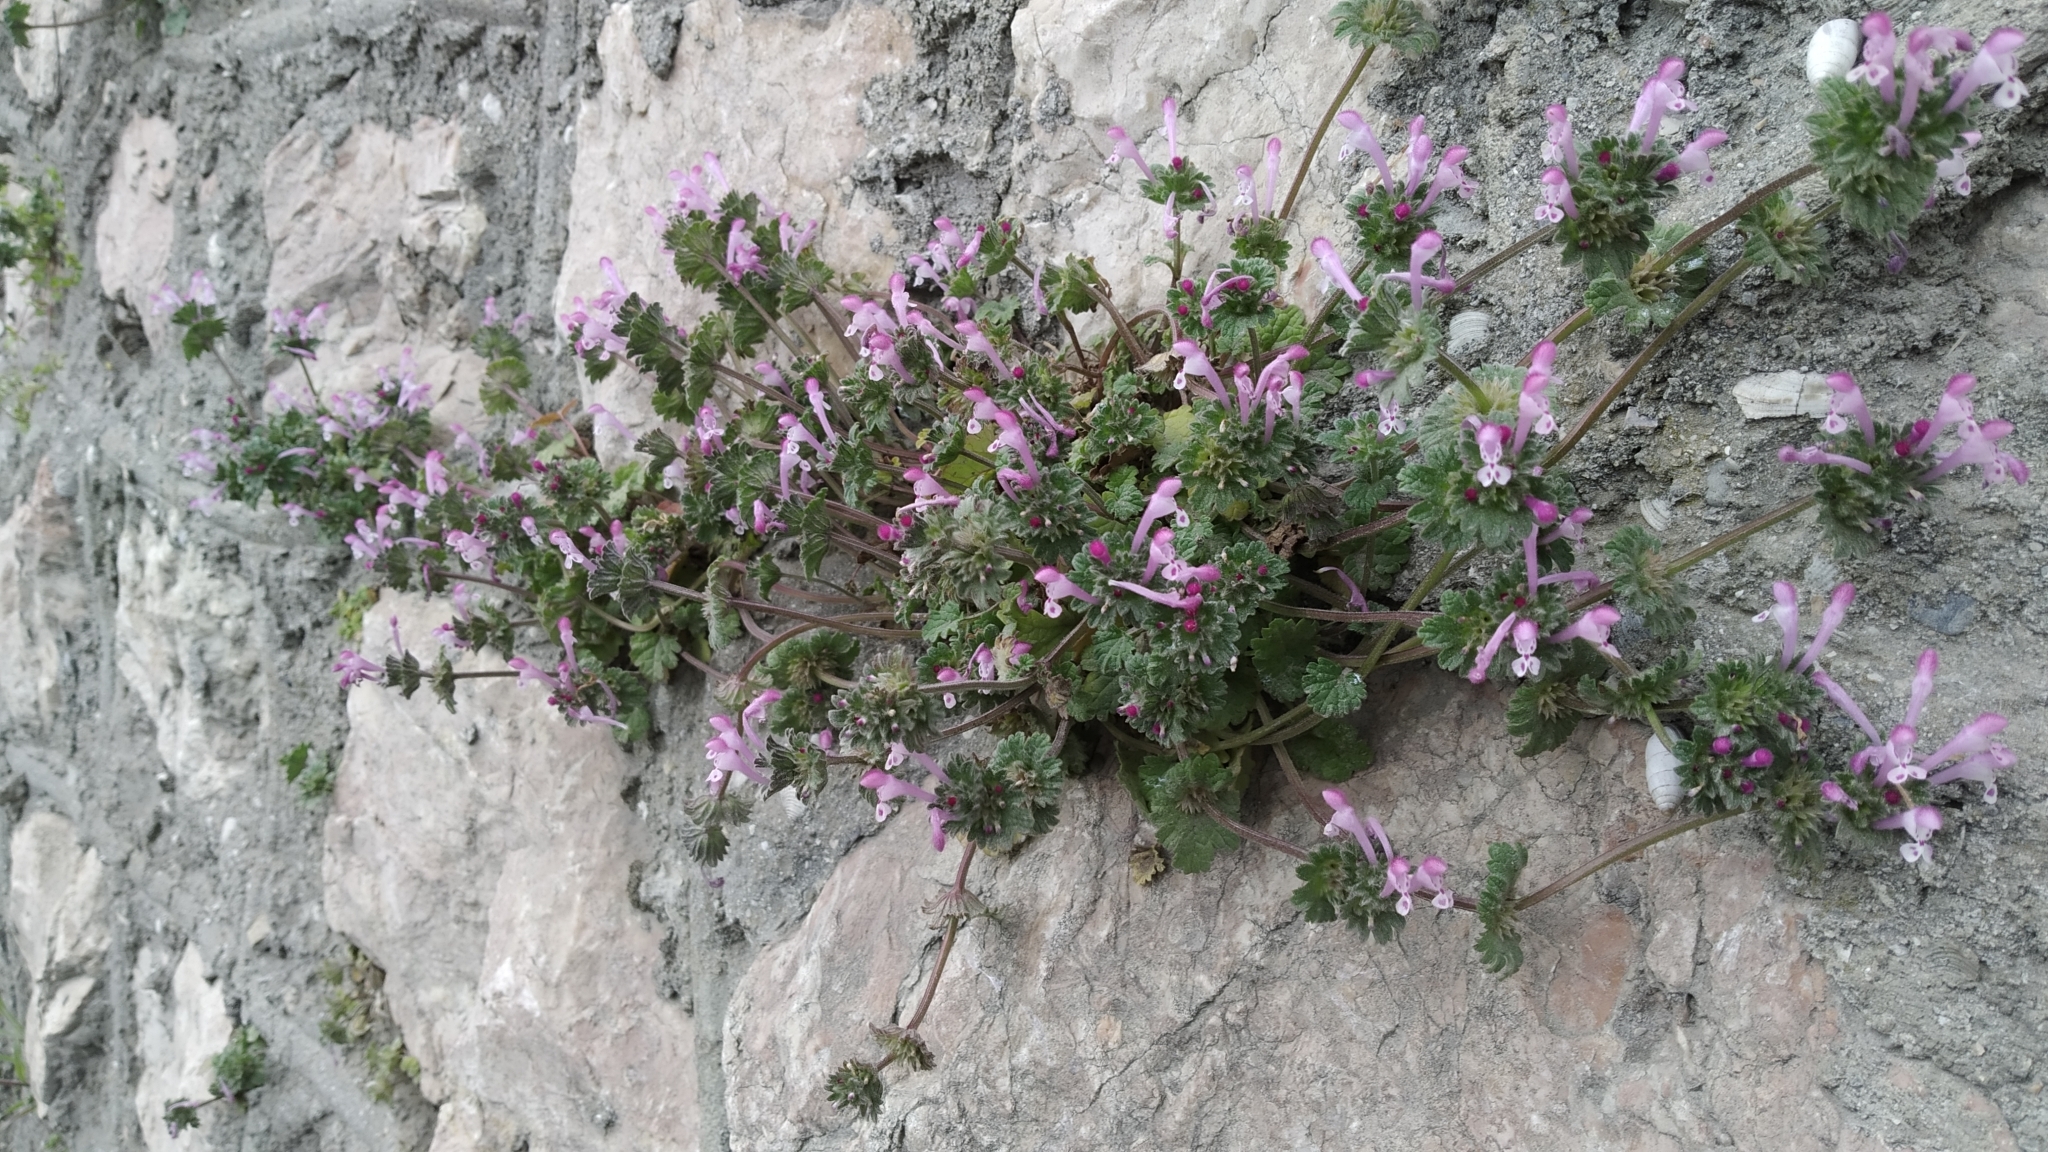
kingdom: Plantae
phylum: Tracheophyta
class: Magnoliopsida
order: Lamiales
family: Lamiaceae
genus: Lamium
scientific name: Lamium amplexicaule
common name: Henbit dead-nettle
